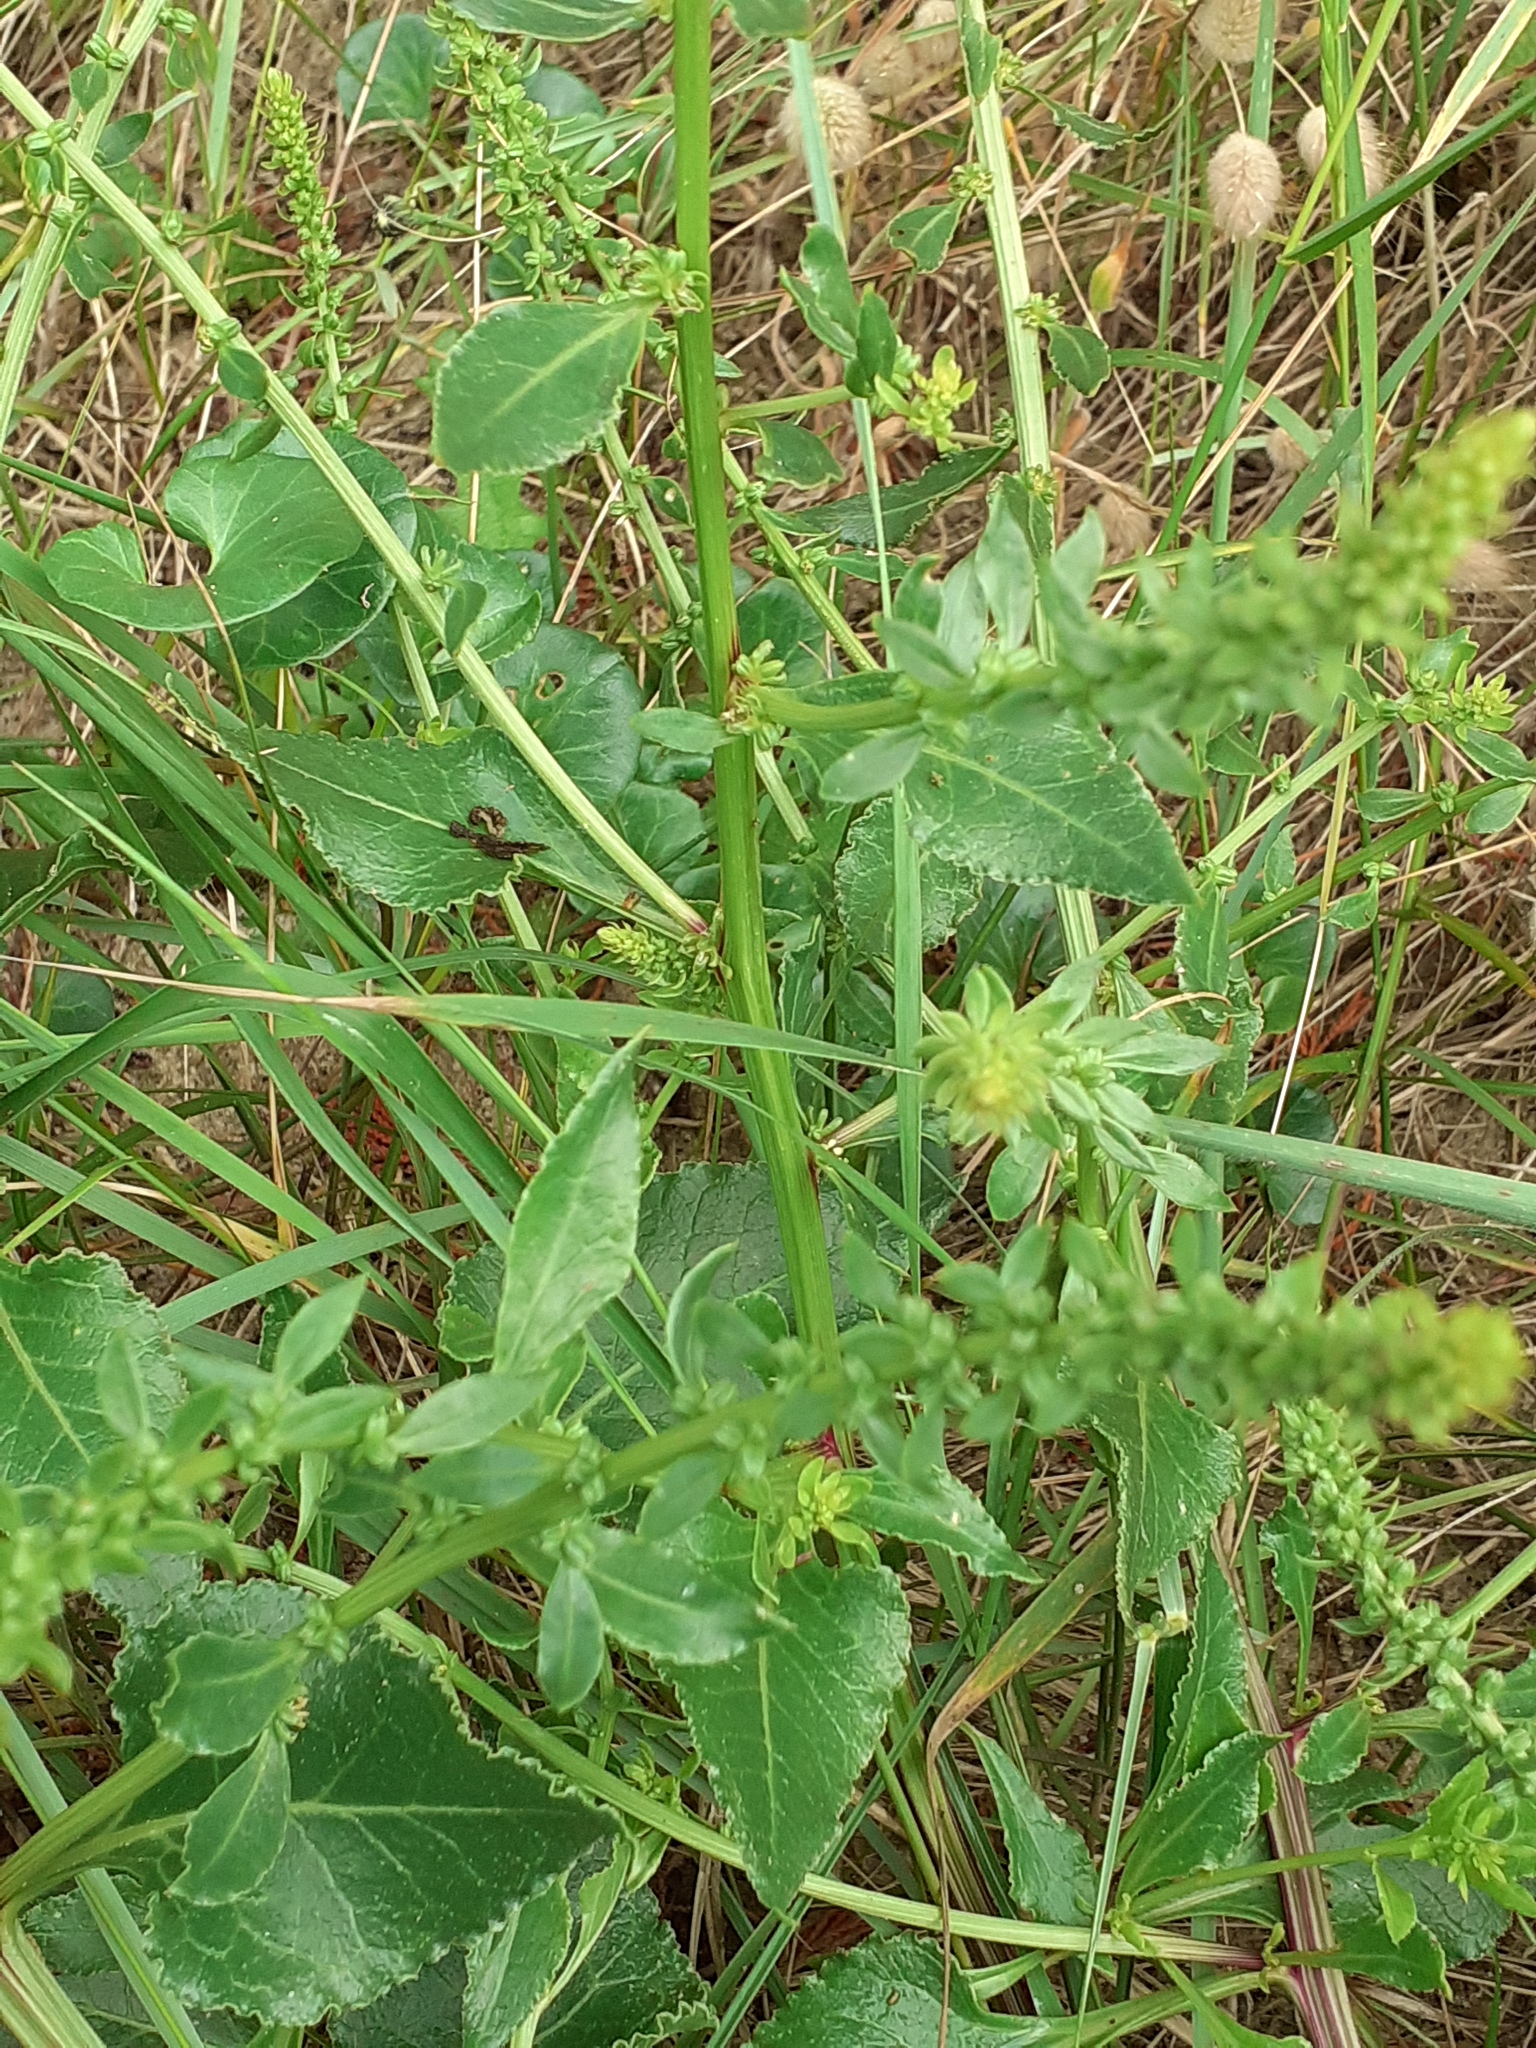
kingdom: Plantae
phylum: Tracheophyta
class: Magnoliopsida
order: Caryophyllales
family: Amaranthaceae
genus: Beta
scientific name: Beta vulgaris
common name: Beet
